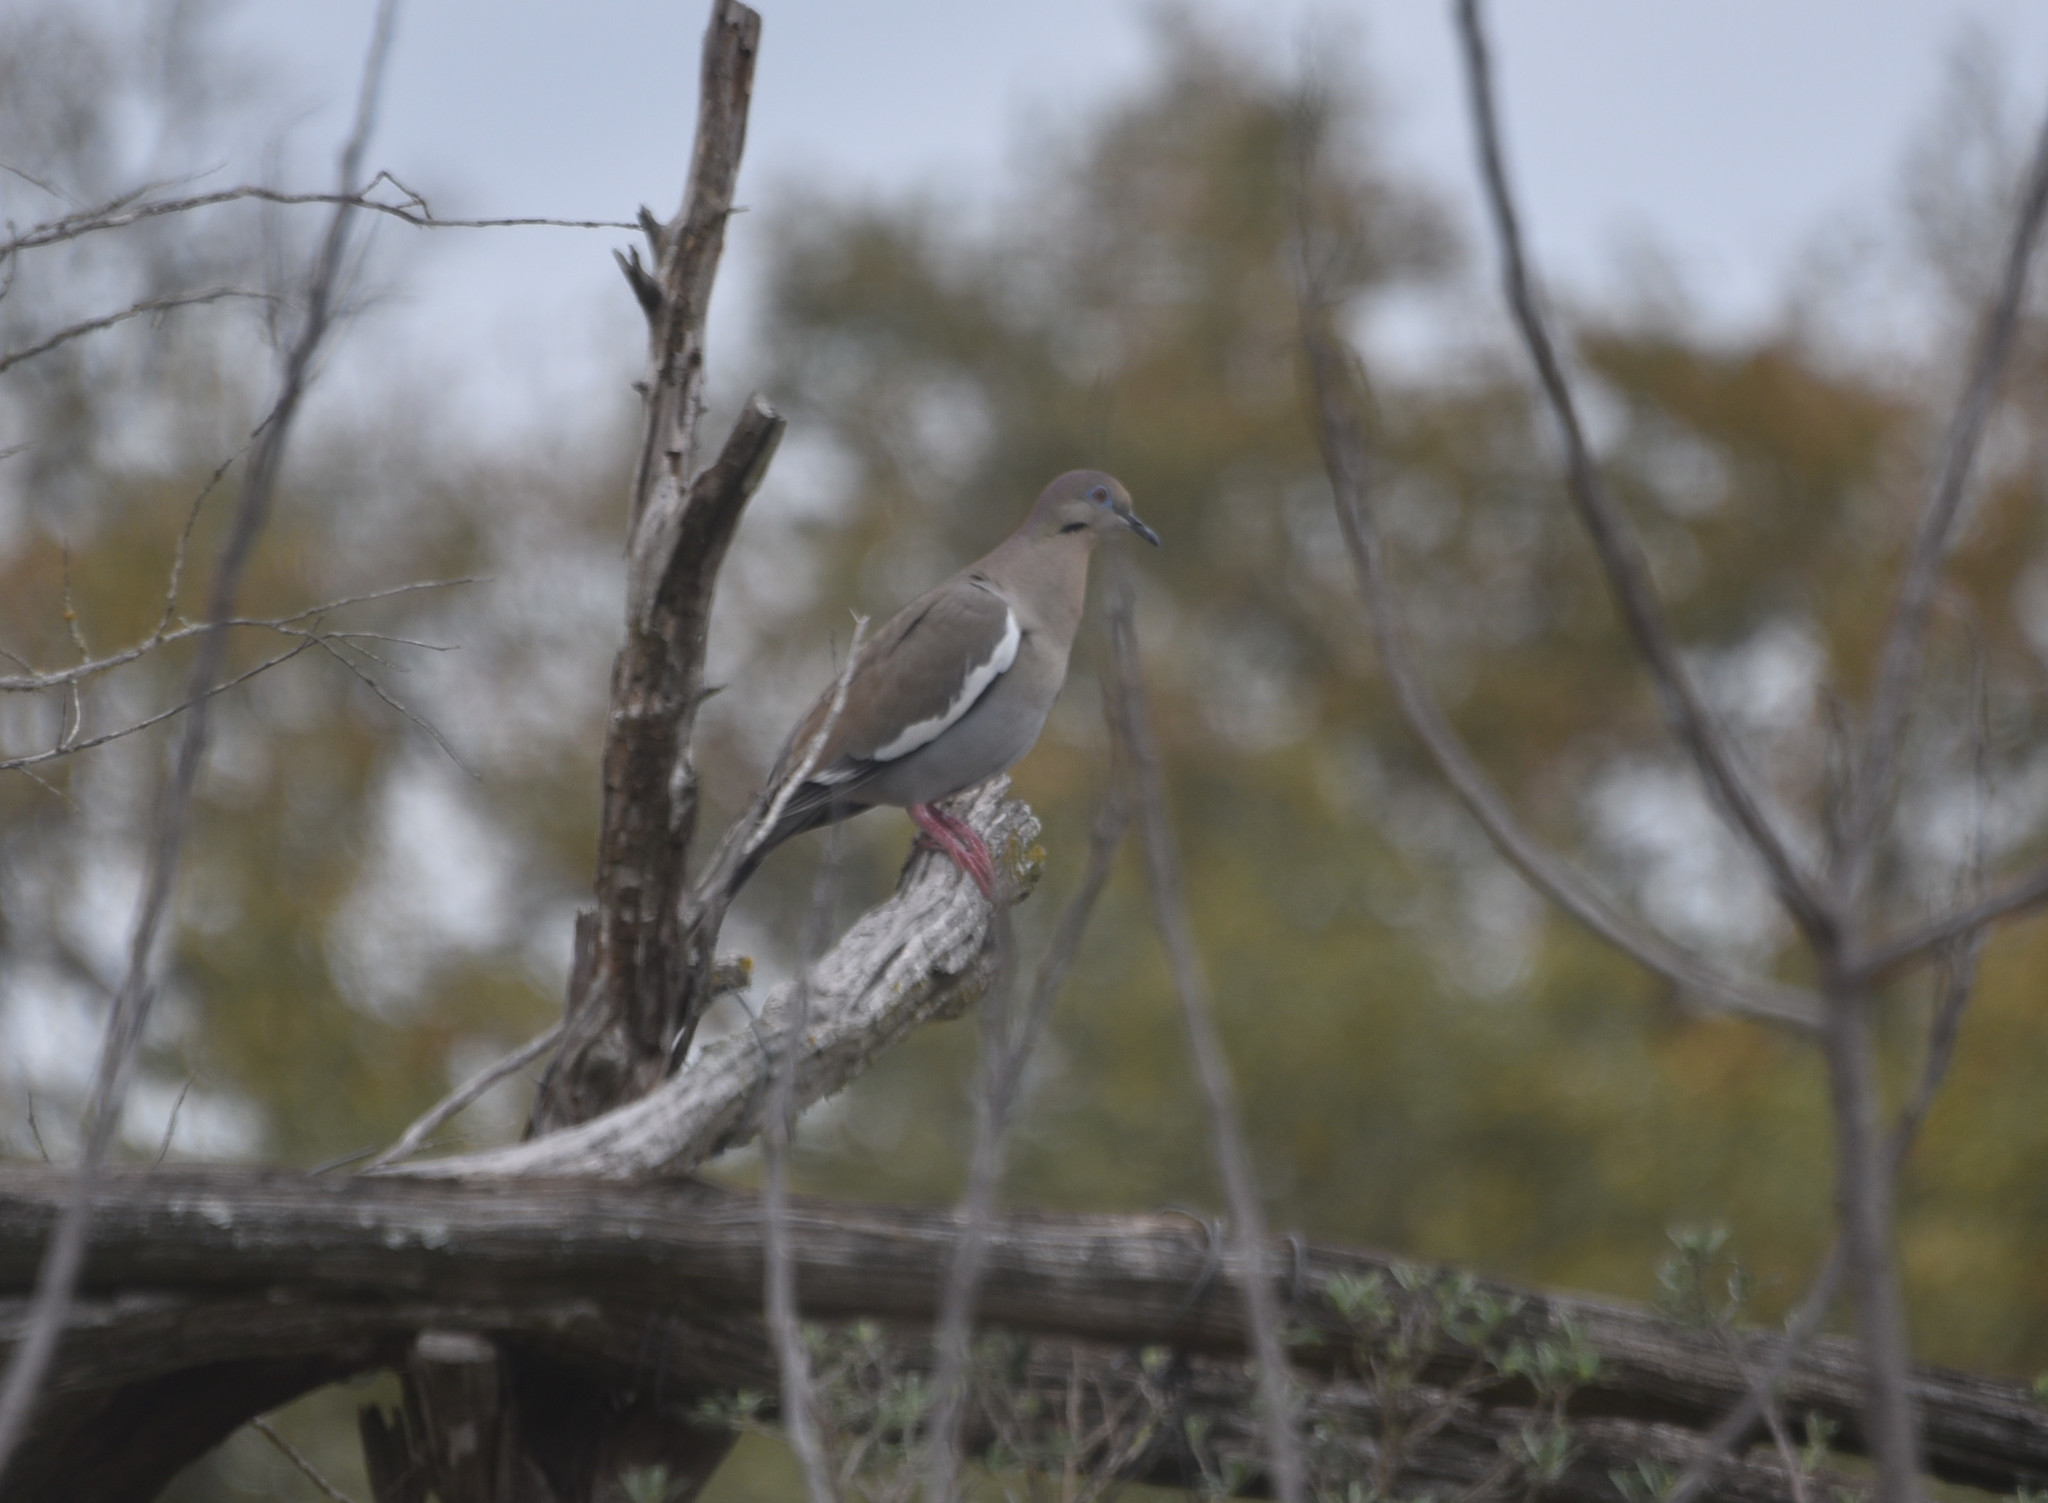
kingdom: Animalia
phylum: Chordata
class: Aves
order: Columbiformes
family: Columbidae
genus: Zenaida
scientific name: Zenaida asiatica
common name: White-winged dove
